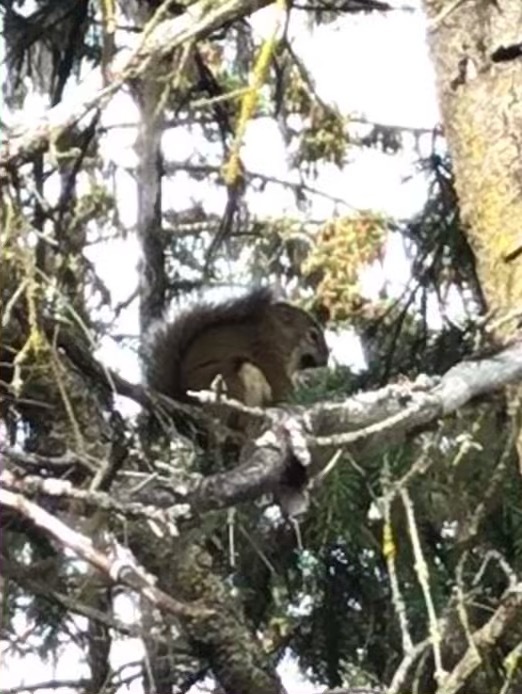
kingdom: Animalia
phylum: Chordata
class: Mammalia
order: Rodentia
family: Sciuridae
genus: Tamiasciurus
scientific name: Tamiasciurus hudsonicus
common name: Red squirrel
